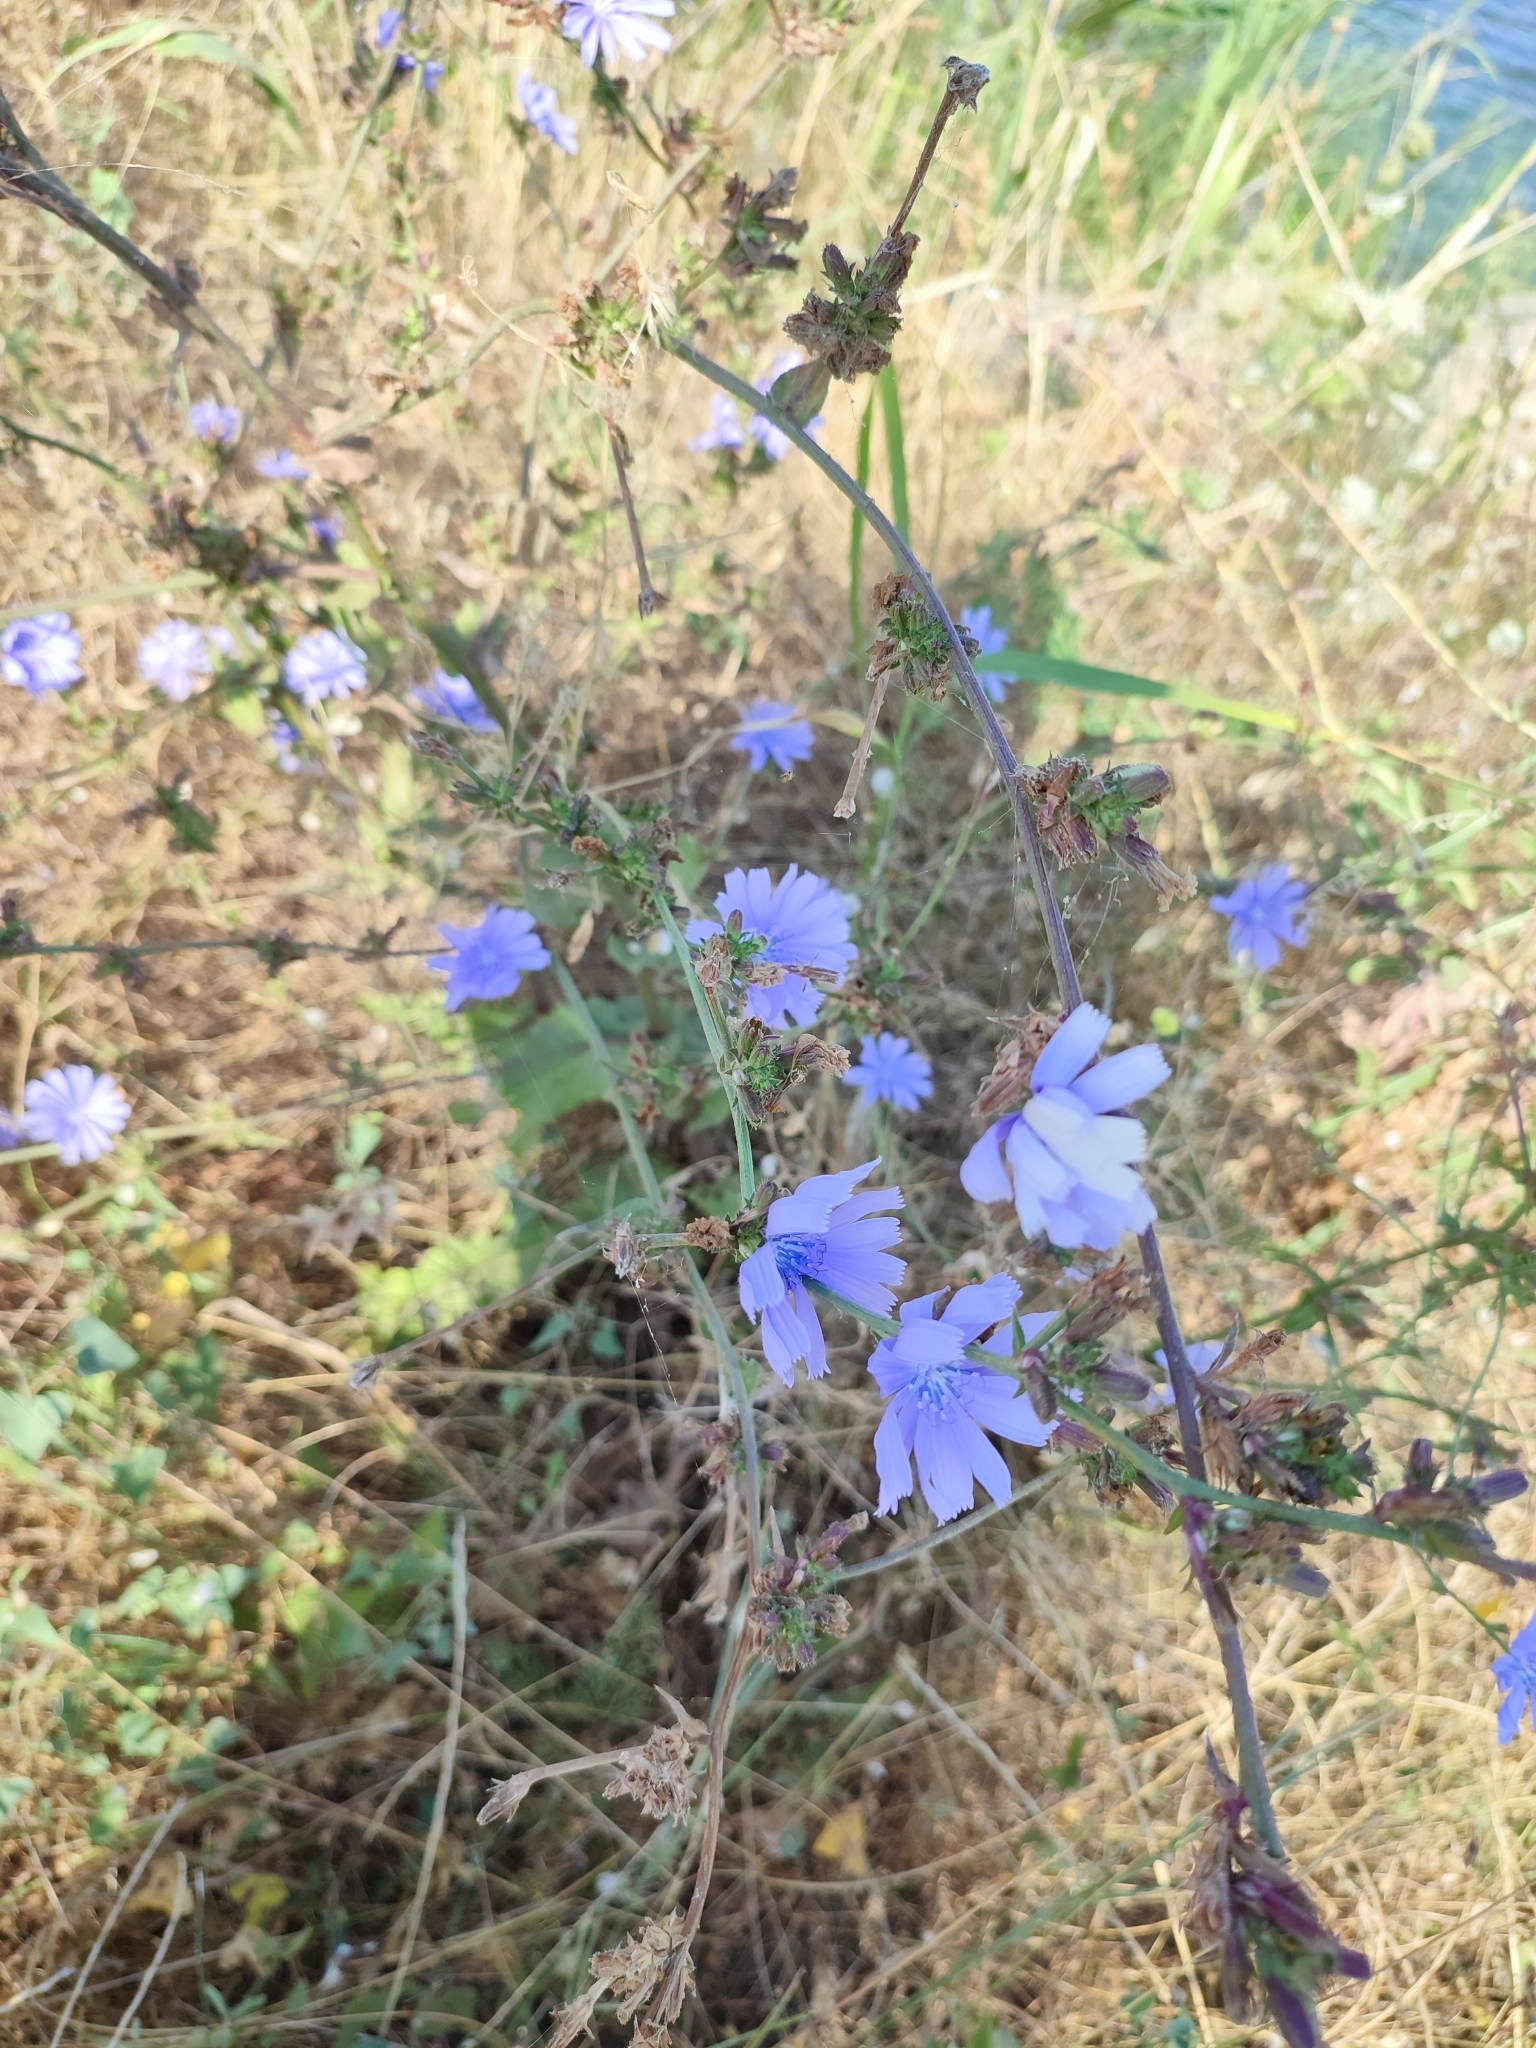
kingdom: Plantae
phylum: Tracheophyta
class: Magnoliopsida
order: Asterales
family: Asteraceae
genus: Cichorium
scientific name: Cichorium intybus
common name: Chicory
